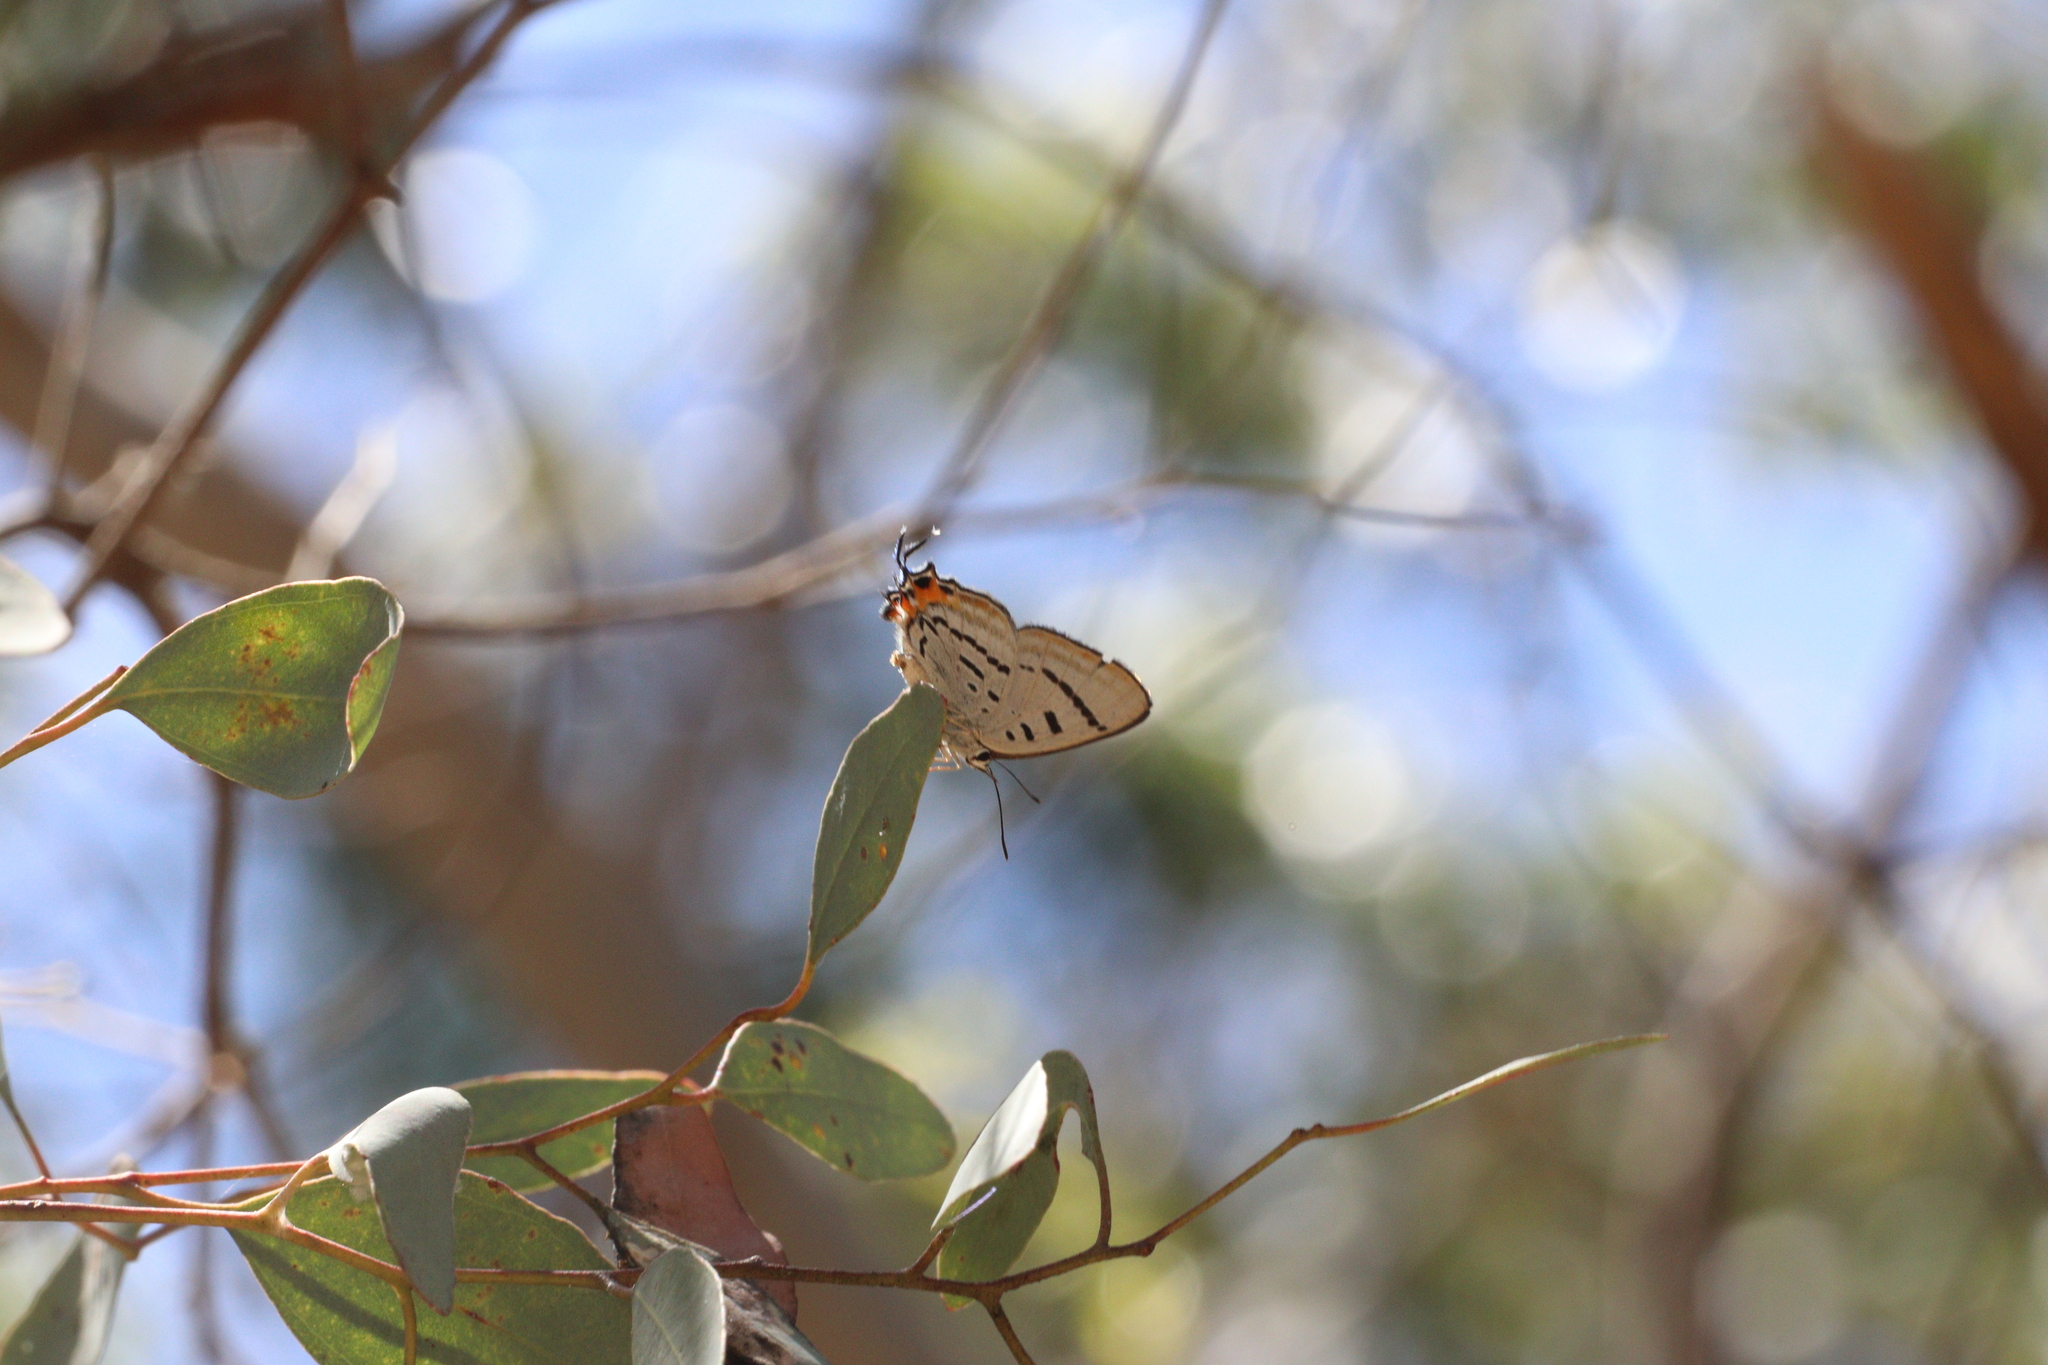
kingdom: Animalia
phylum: Arthropoda
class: Insecta
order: Lepidoptera
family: Lycaenidae
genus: Jalmenus
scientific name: Jalmenus evagoras
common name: Common imperial blue
